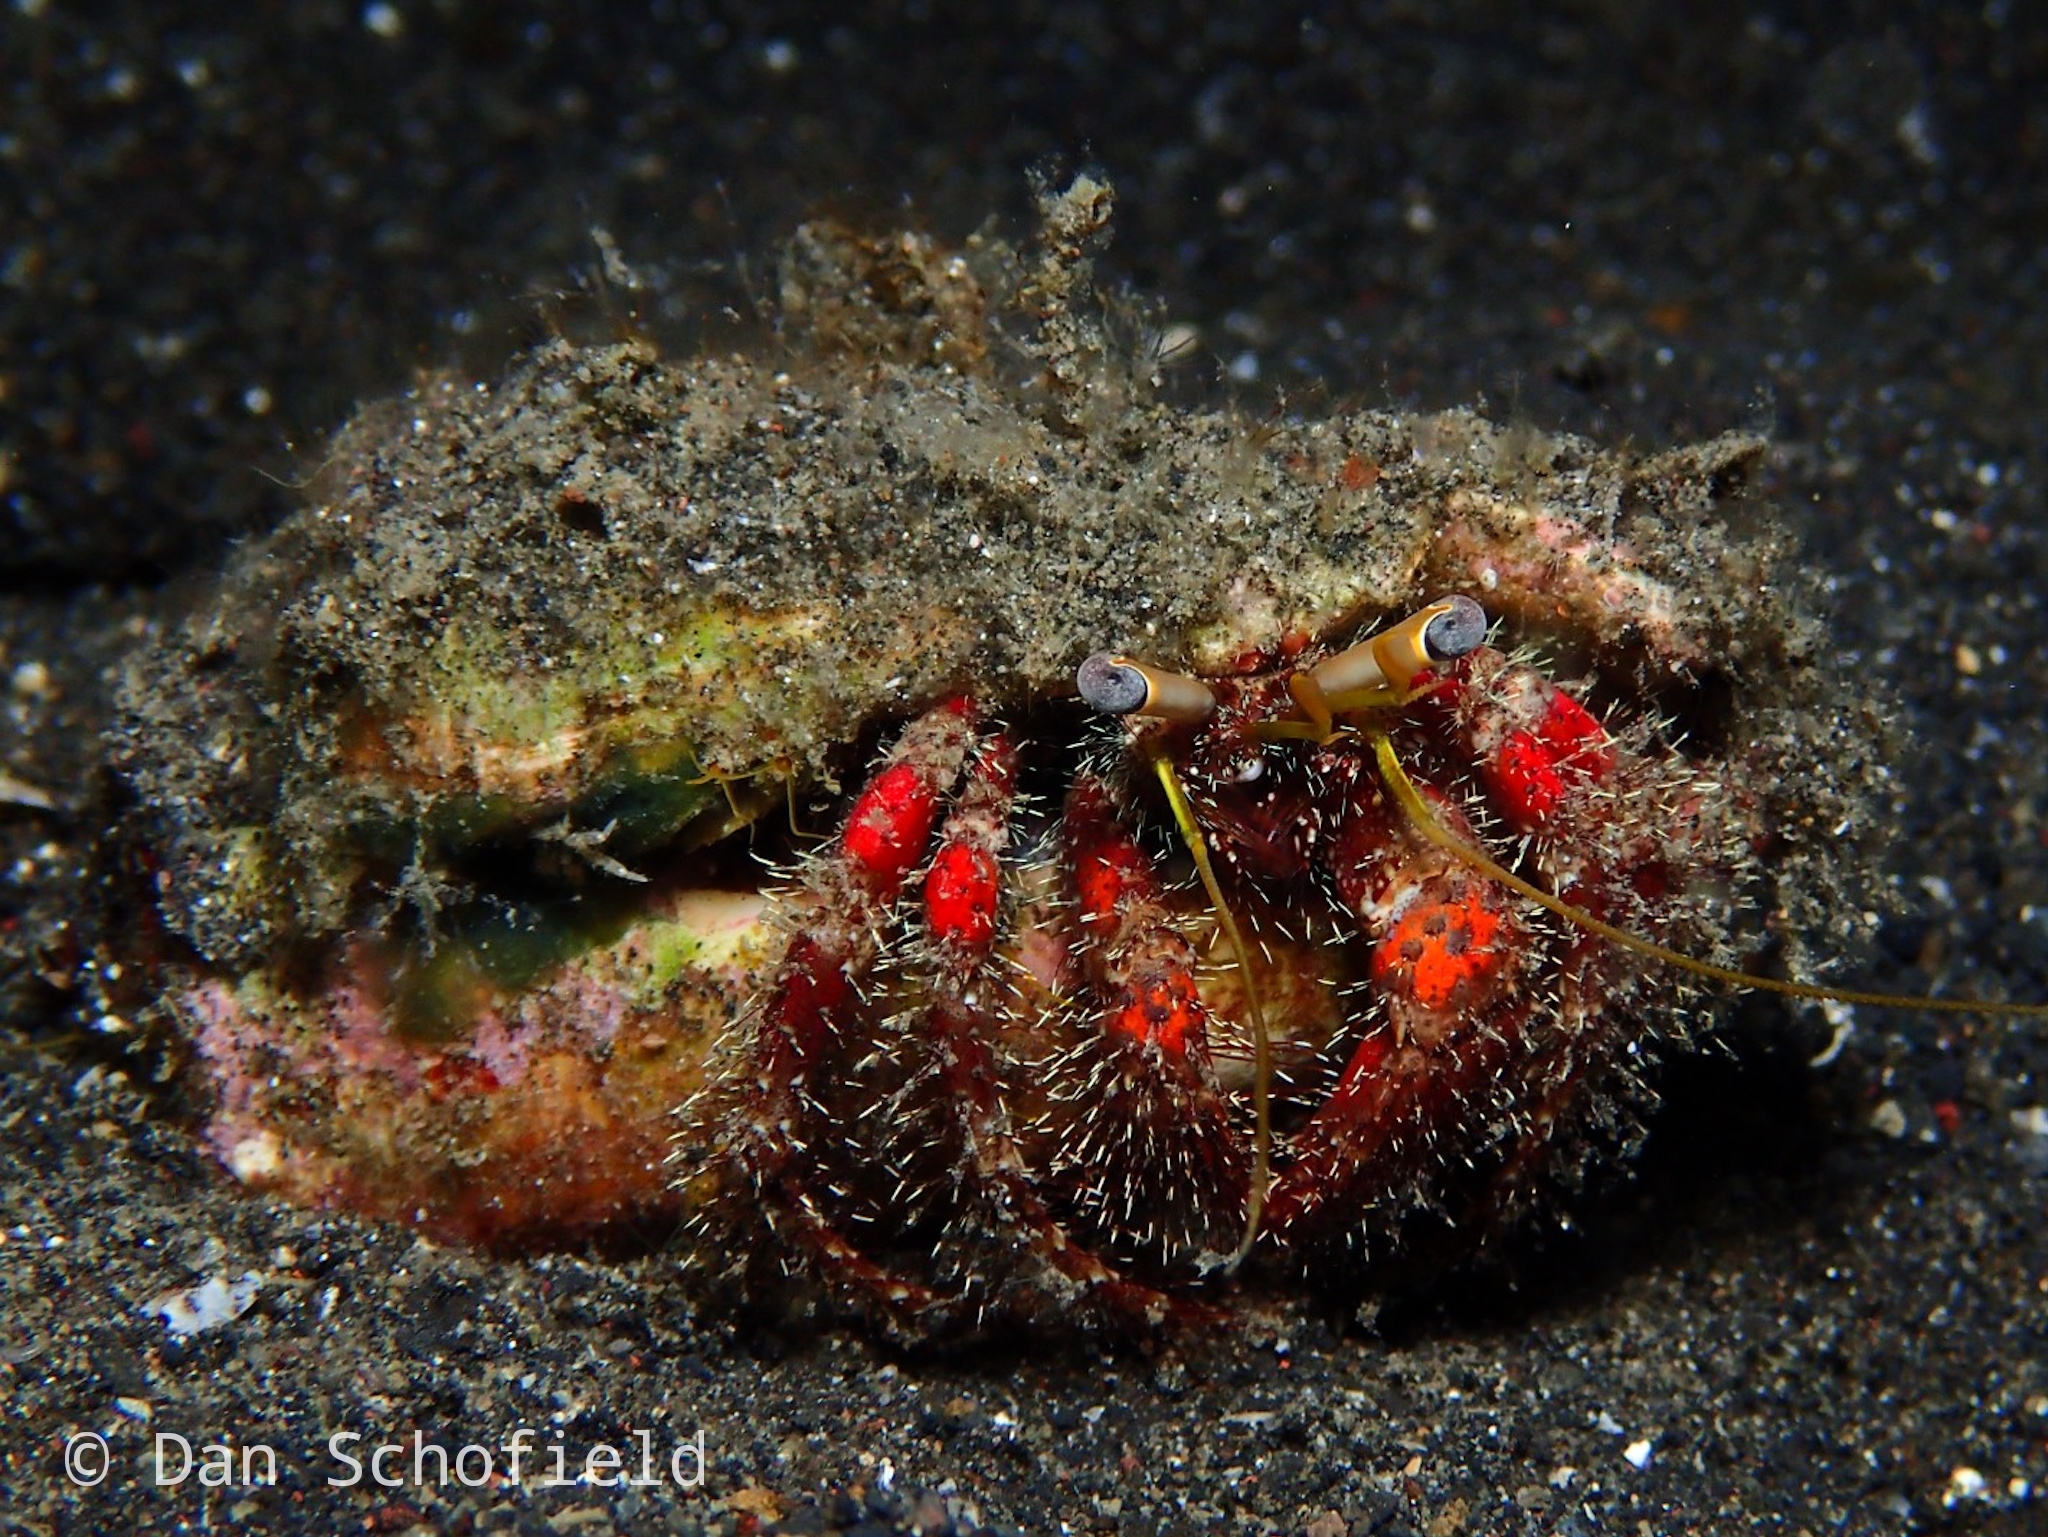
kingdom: Animalia
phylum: Arthropoda
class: Malacostraca
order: Decapoda
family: Diogenidae
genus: Dardanus
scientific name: Dardanus sanguinolentus
